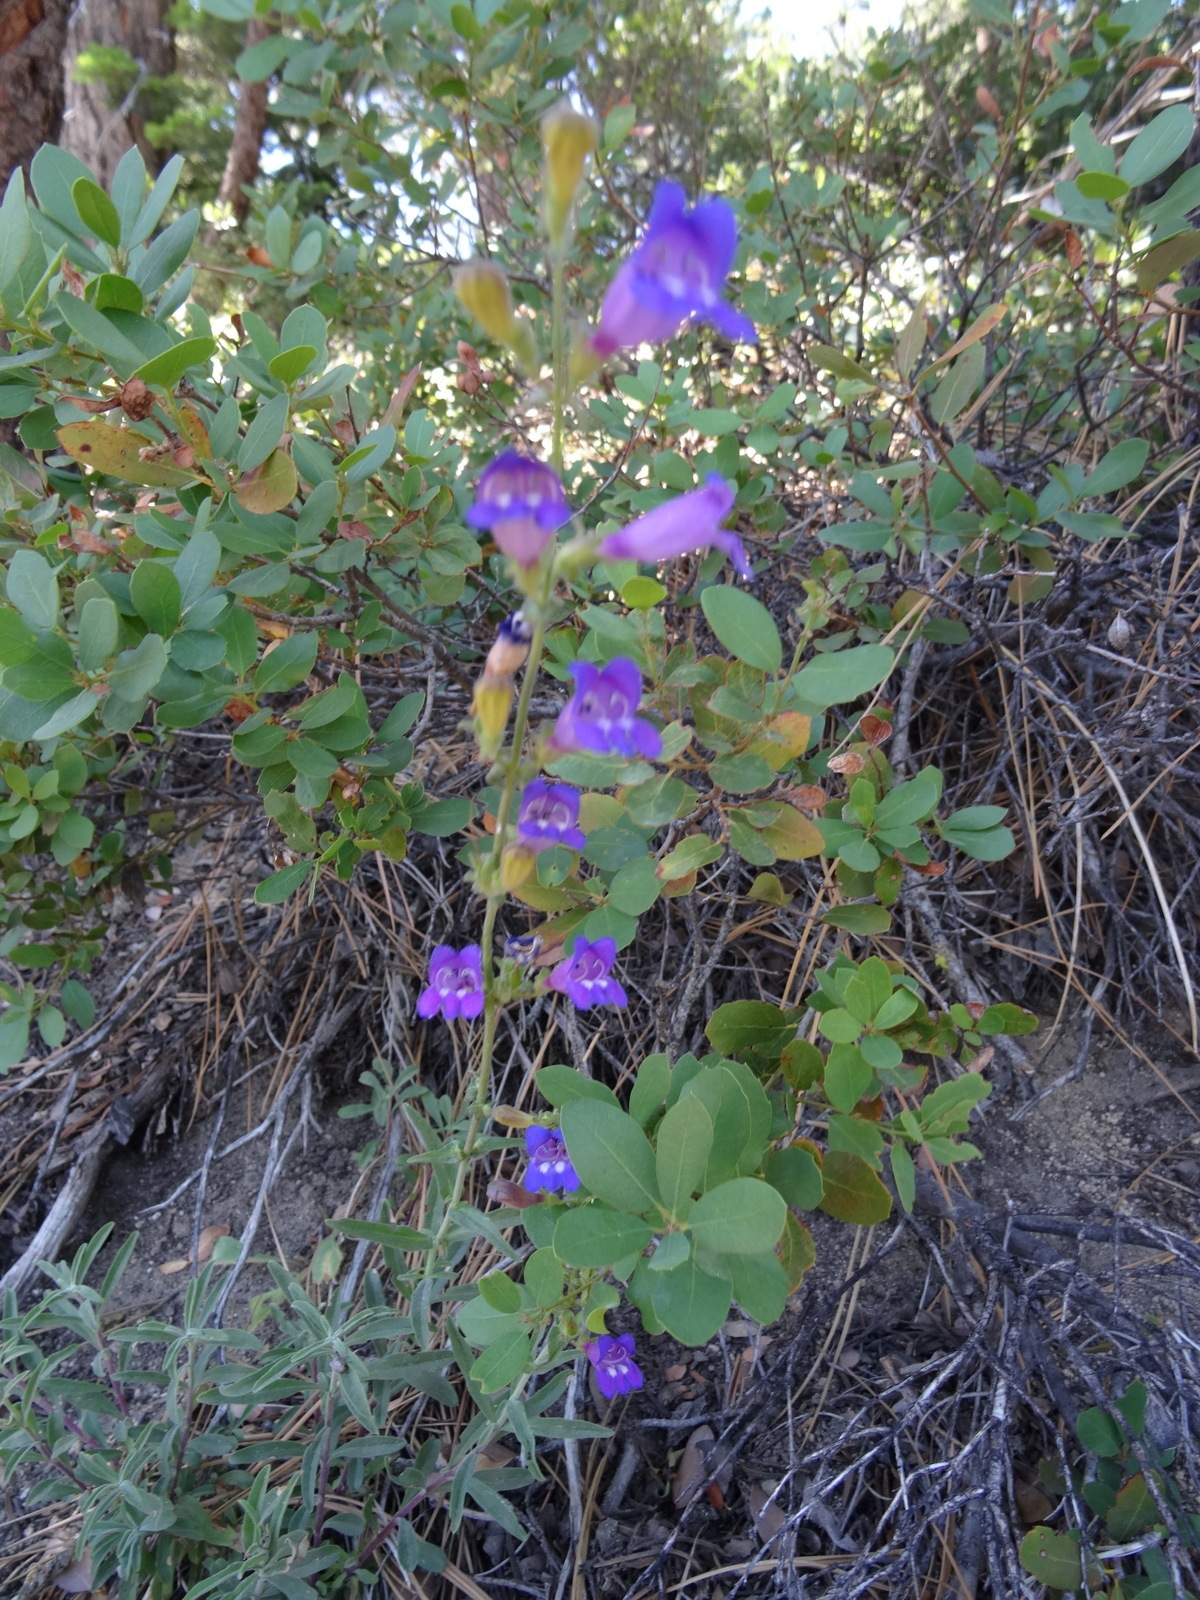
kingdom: Plantae
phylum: Tracheophyta
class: Magnoliopsida
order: Lamiales
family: Plantaginaceae
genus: Penstemon
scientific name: Penstemon laetus
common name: Gay penstemon
